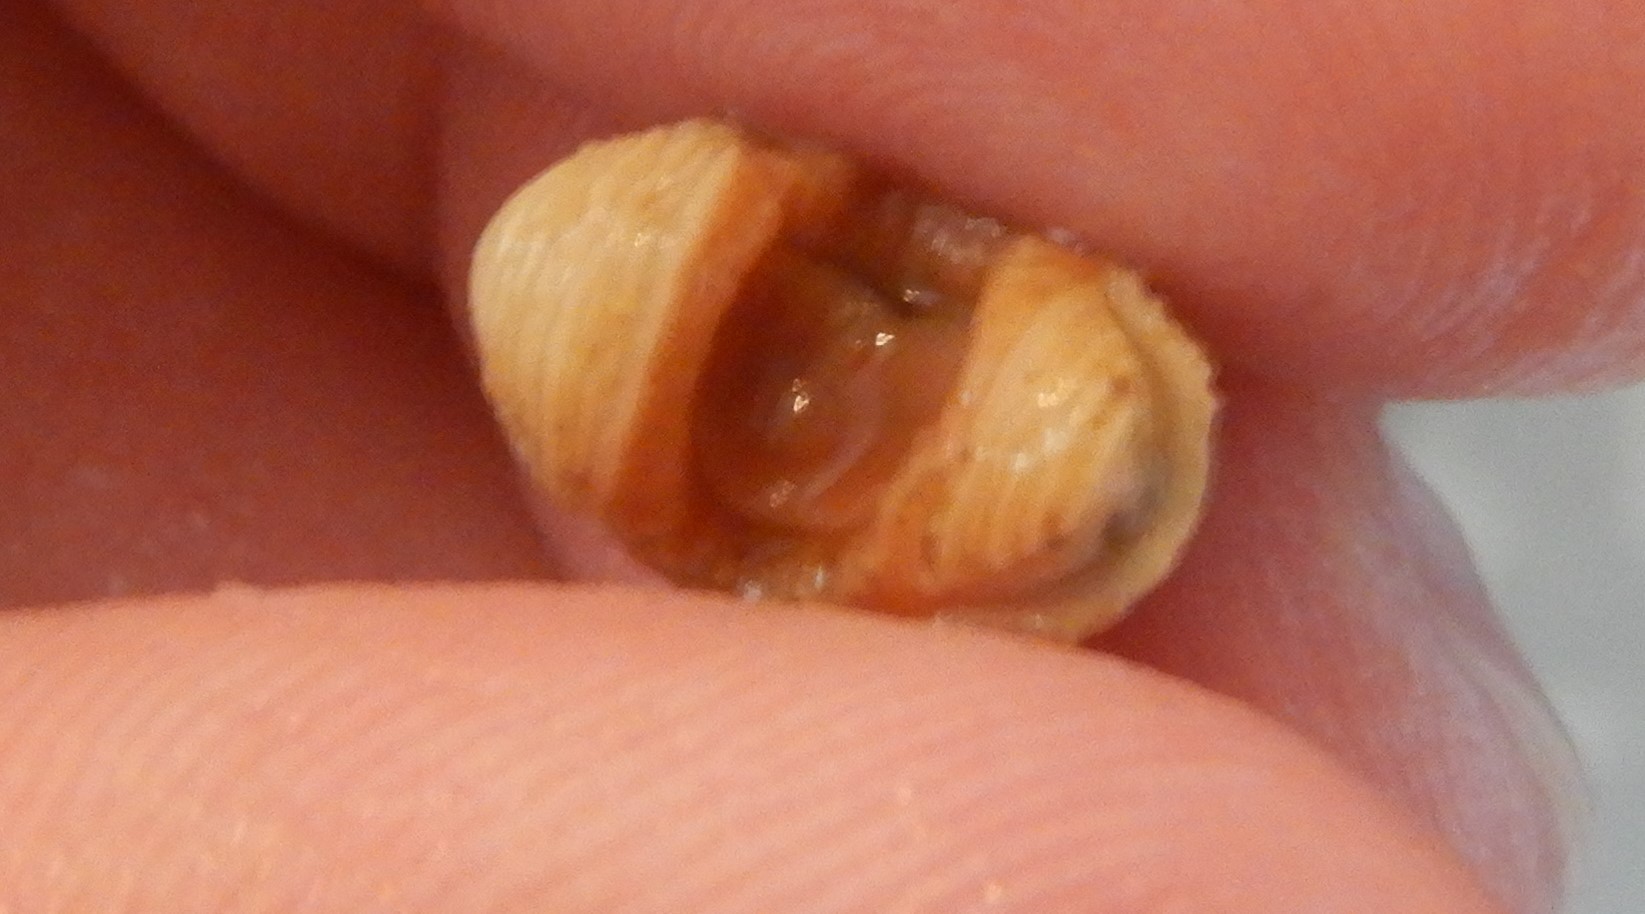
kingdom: Animalia
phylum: Mollusca
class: Polyplacophora
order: Lepidopleurida
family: Leptochitonidae
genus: Lepidopleurus
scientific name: Lepidopleurus cajetanus
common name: Ribbed chiton
